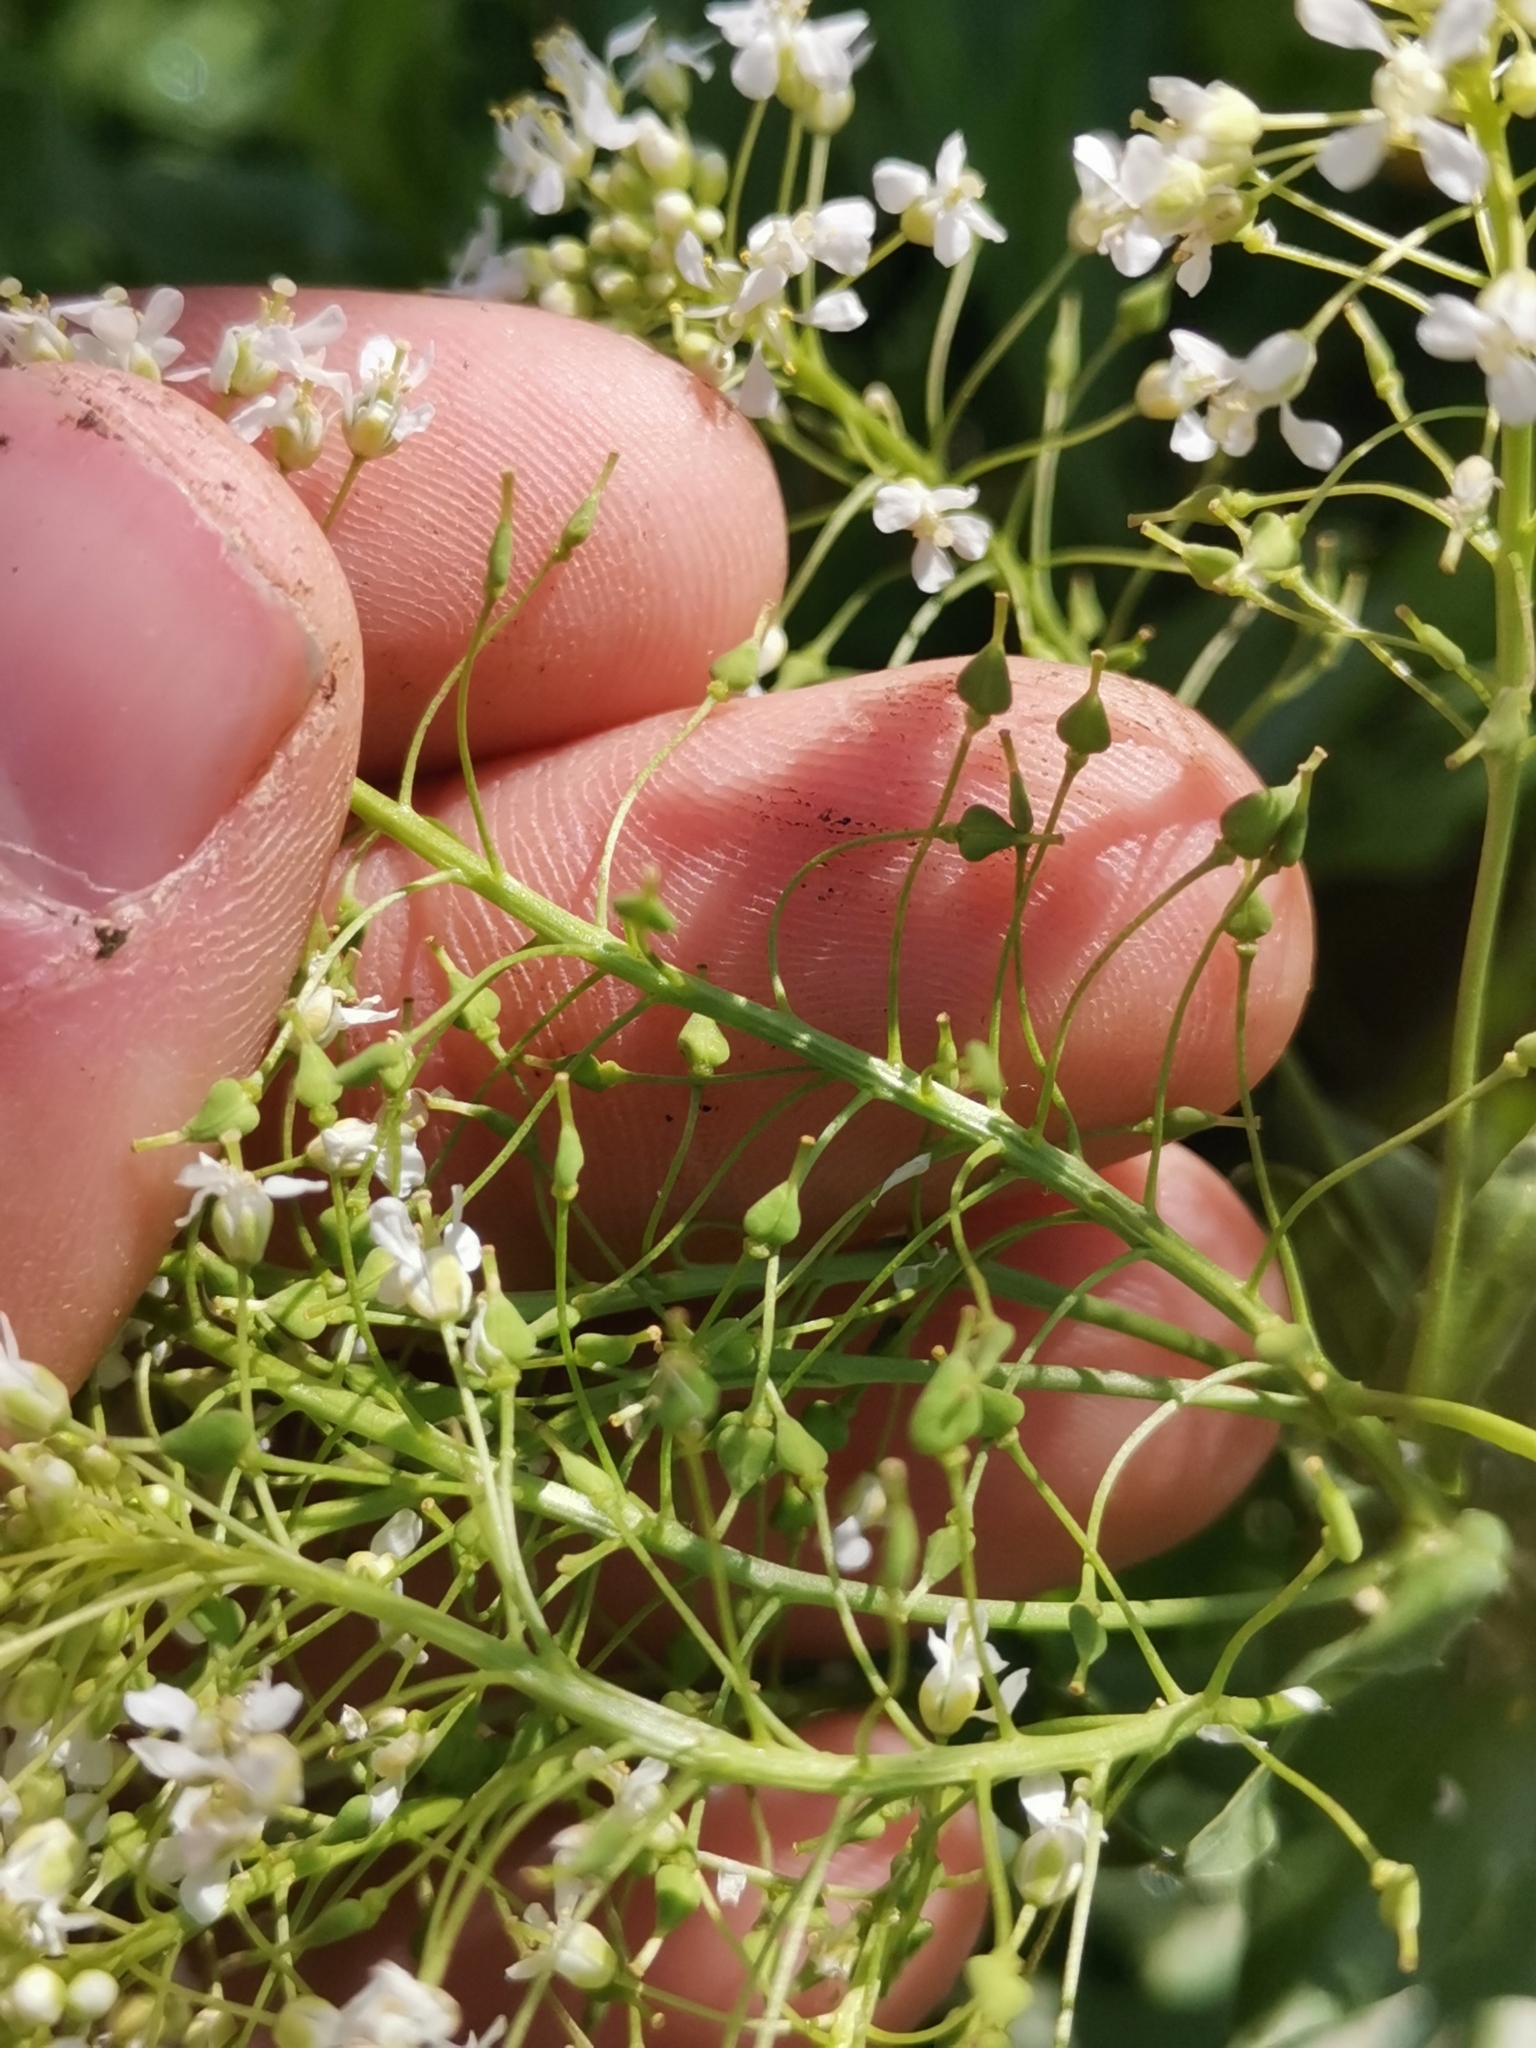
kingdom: Plantae
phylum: Tracheophyta
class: Magnoliopsida
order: Brassicales
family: Brassicaceae
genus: Lepidium
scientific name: Lepidium draba
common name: Hoary cress
